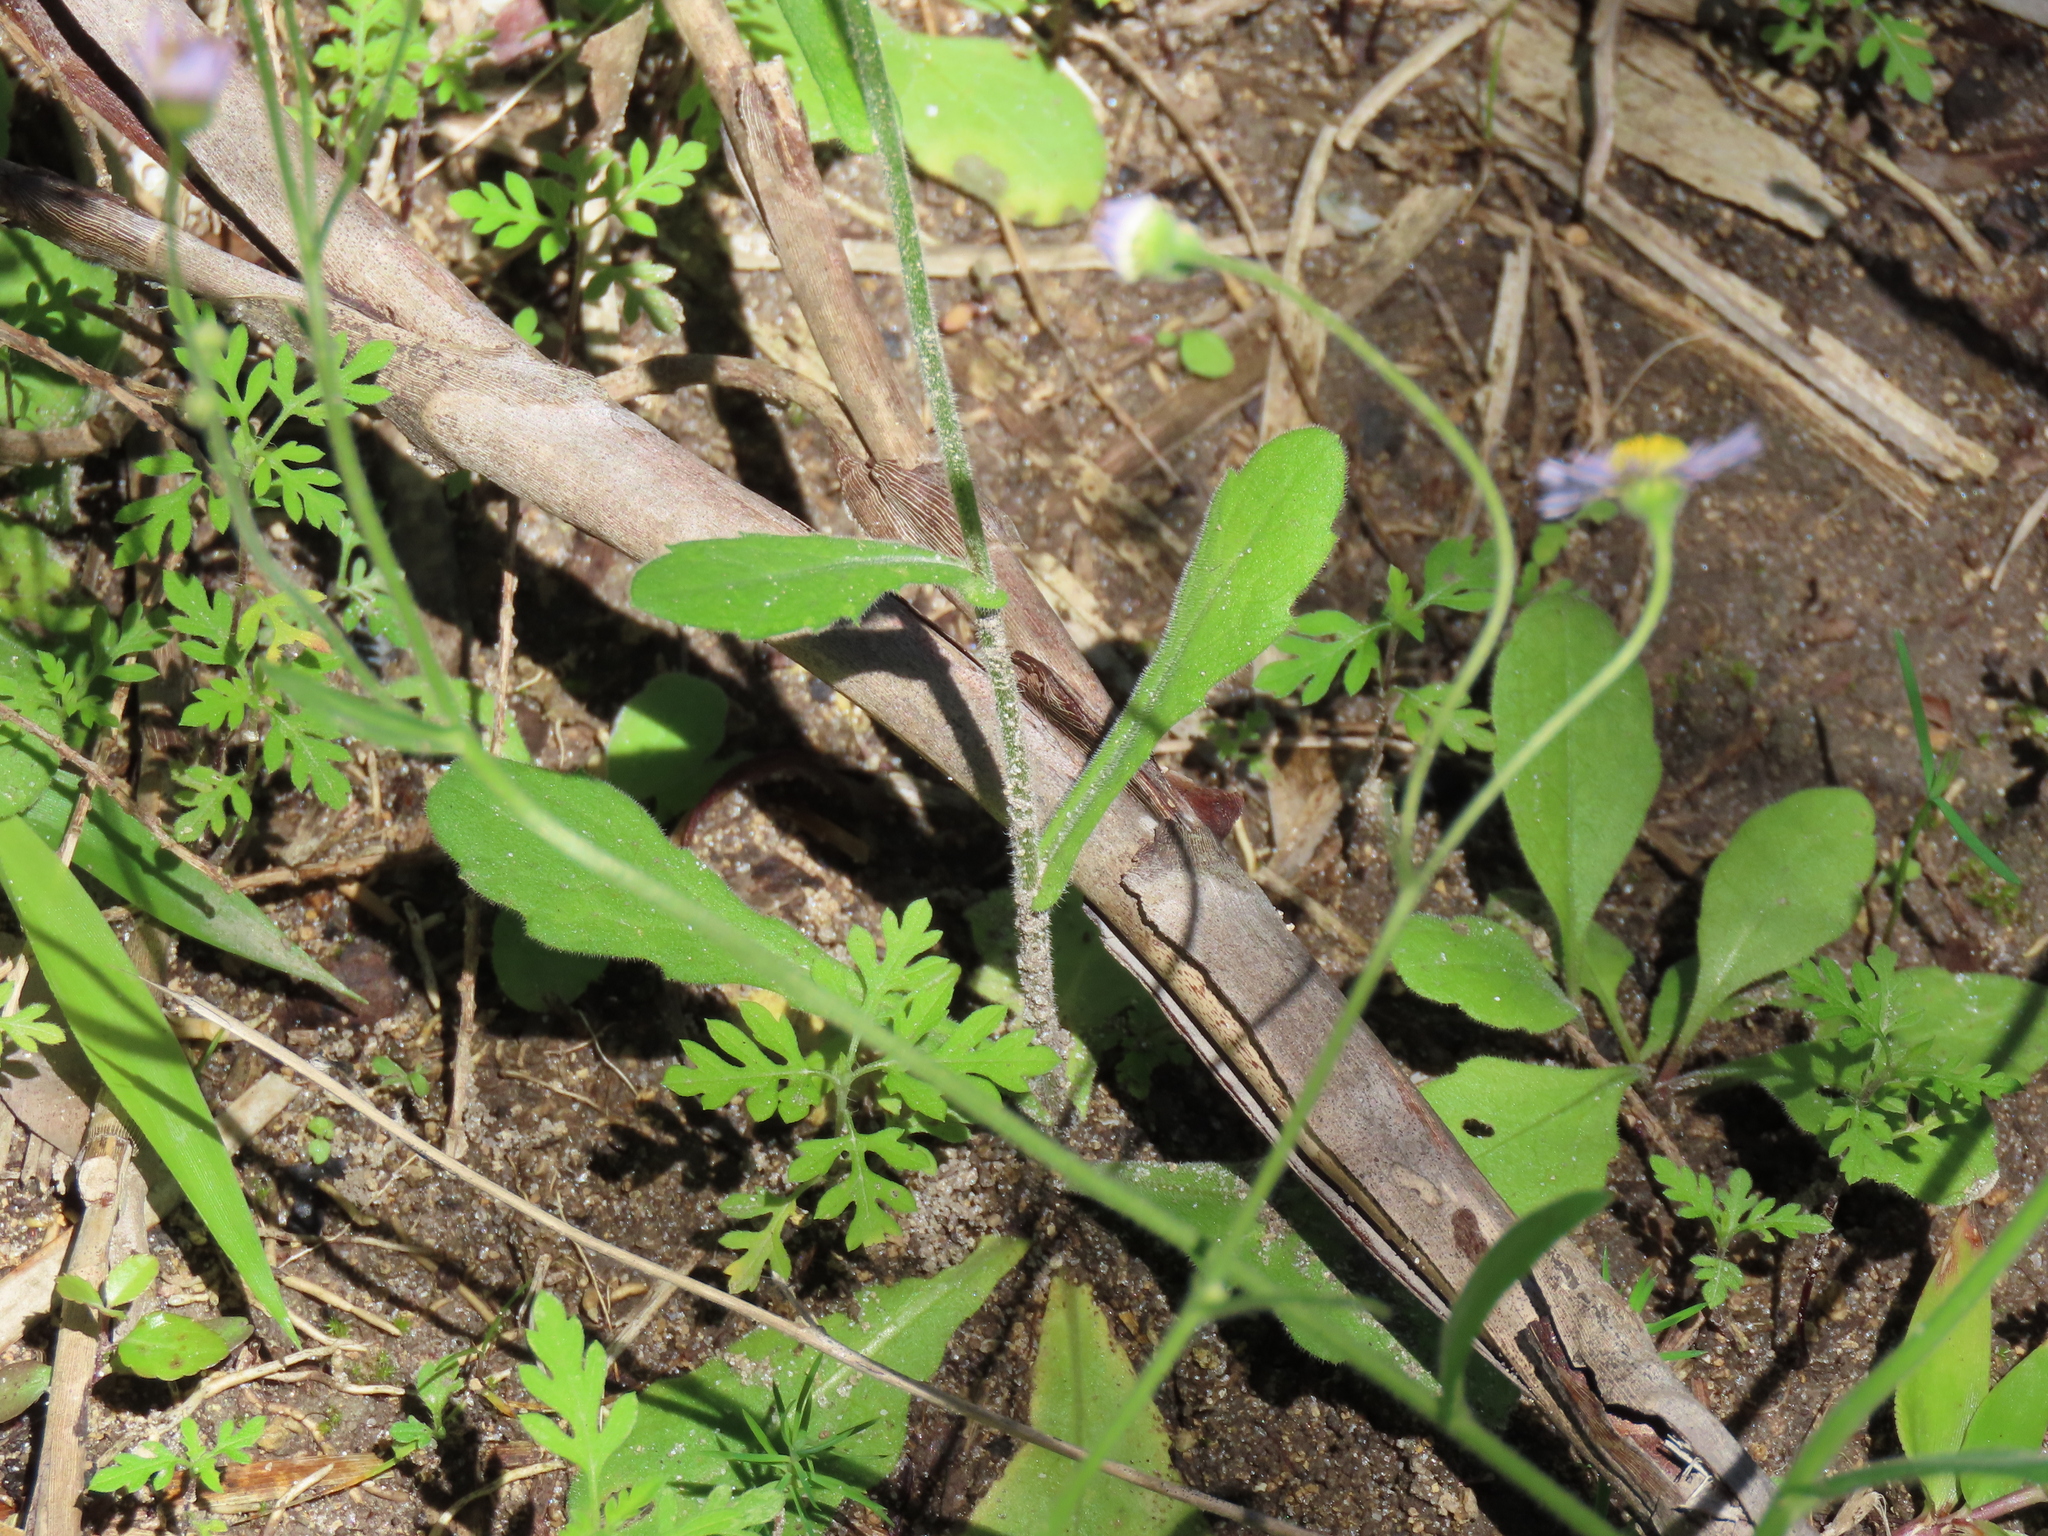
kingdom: Plantae
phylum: Tracheophyta
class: Magnoliopsida
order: Asterales
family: Asteraceae
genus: Erigeron
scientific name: Erigeron quercifolius
